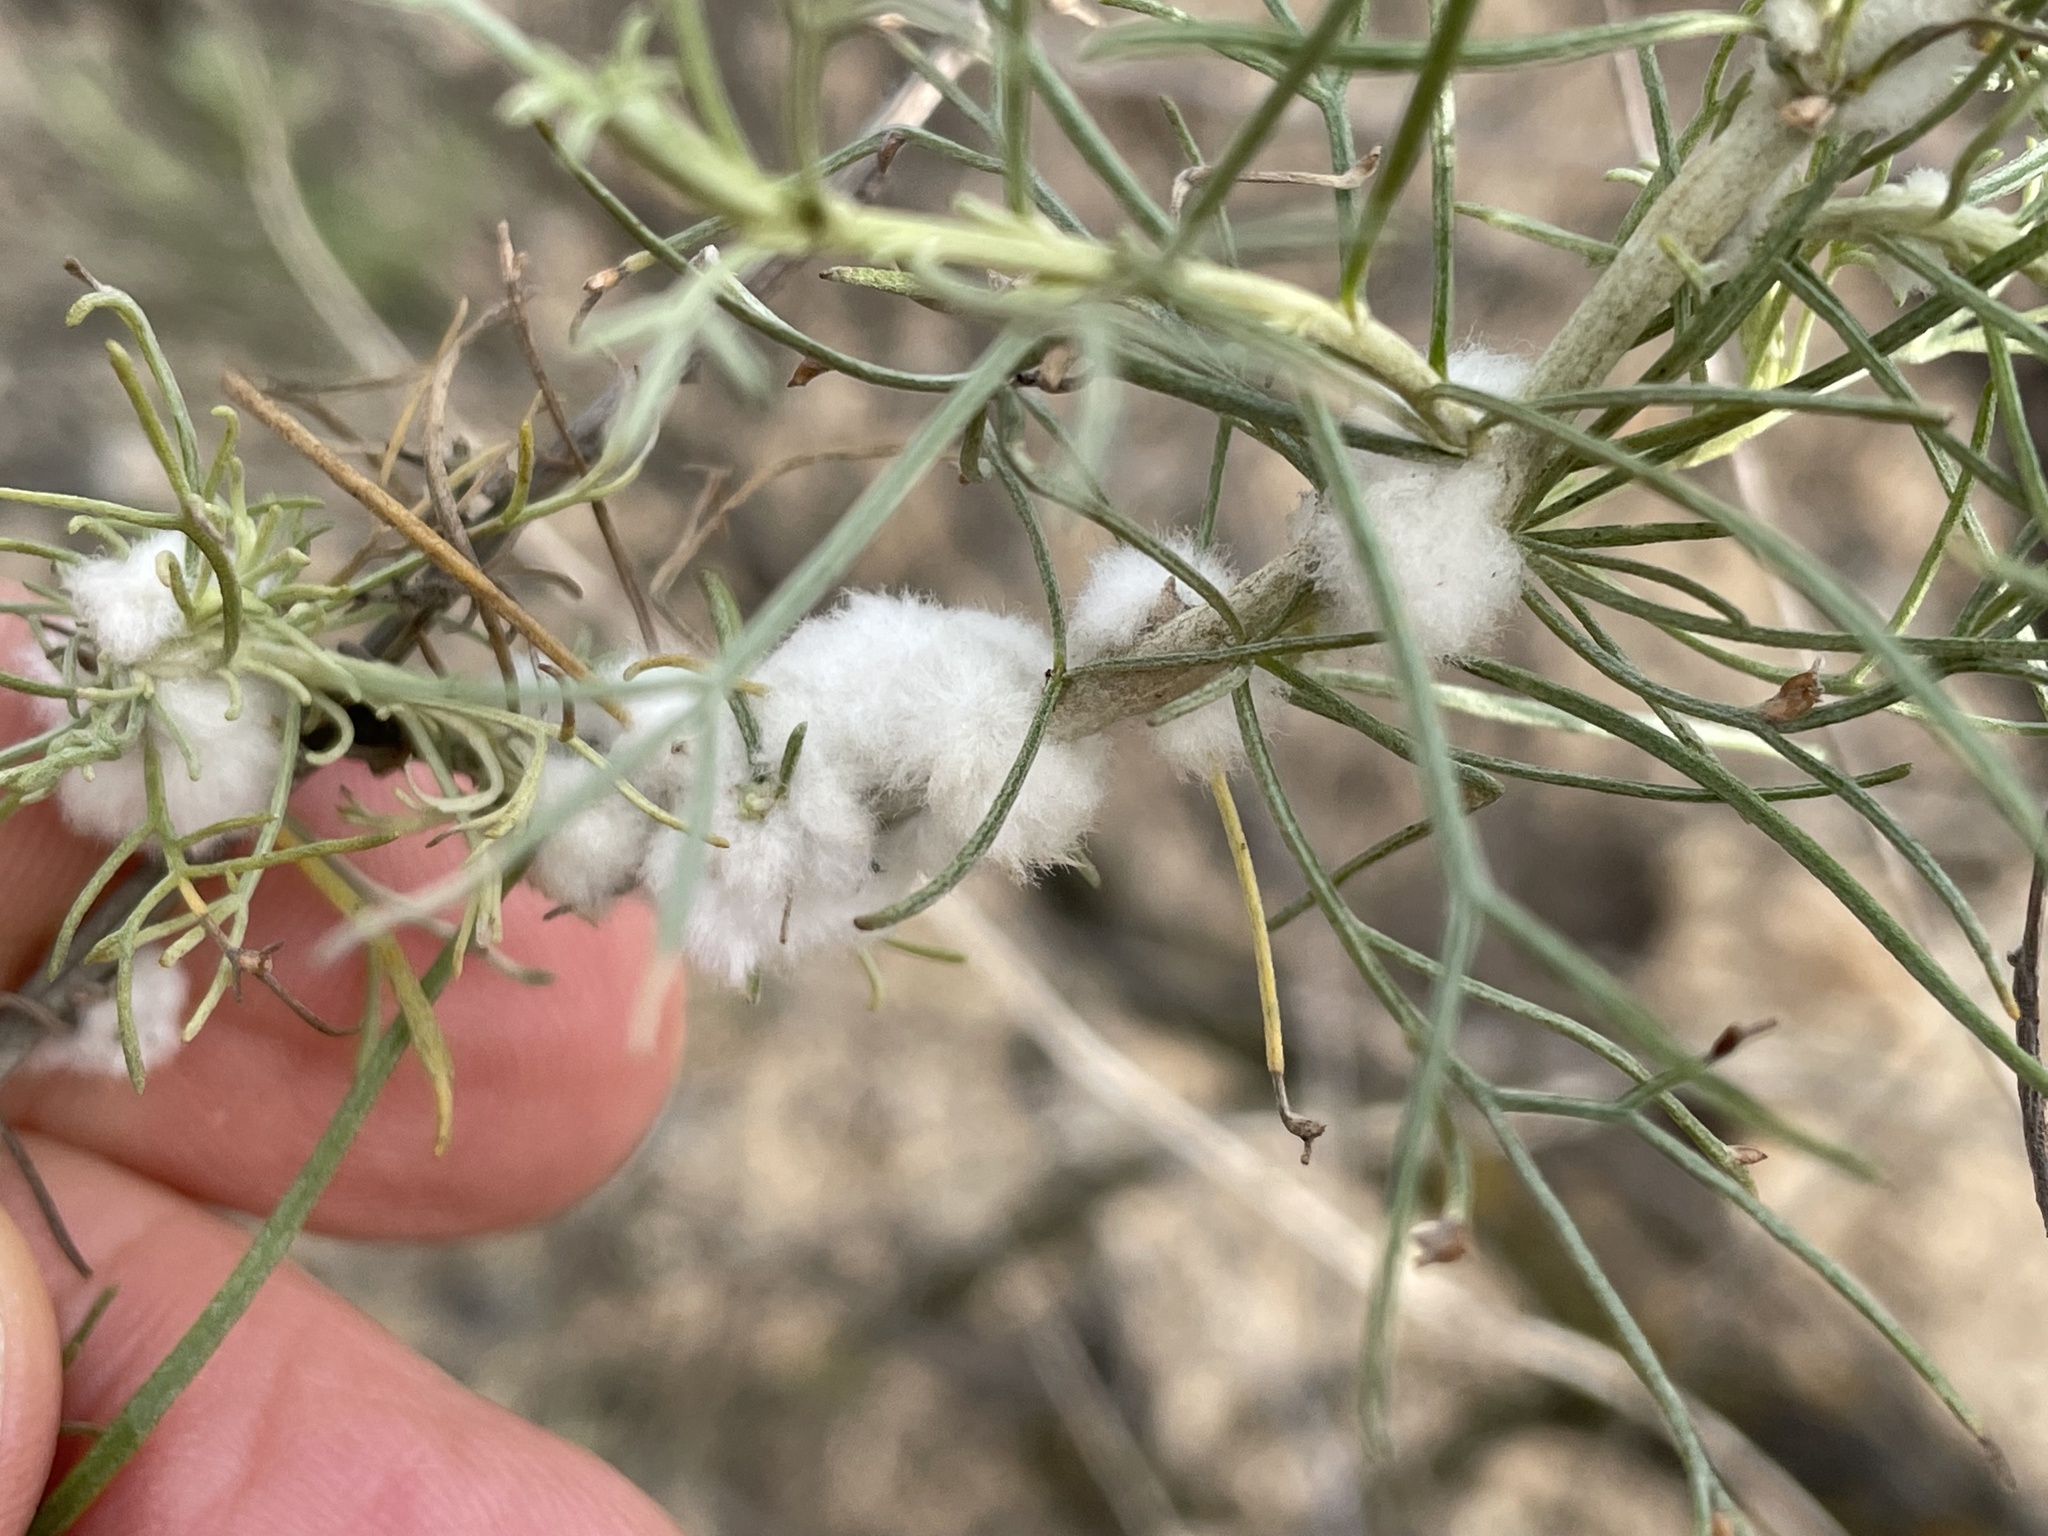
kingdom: Animalia
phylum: Arthropoda
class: Insecta
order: Diptera
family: Cecidomyiidae
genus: Rhopalomyia
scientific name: Rhopalomyia floccosa
